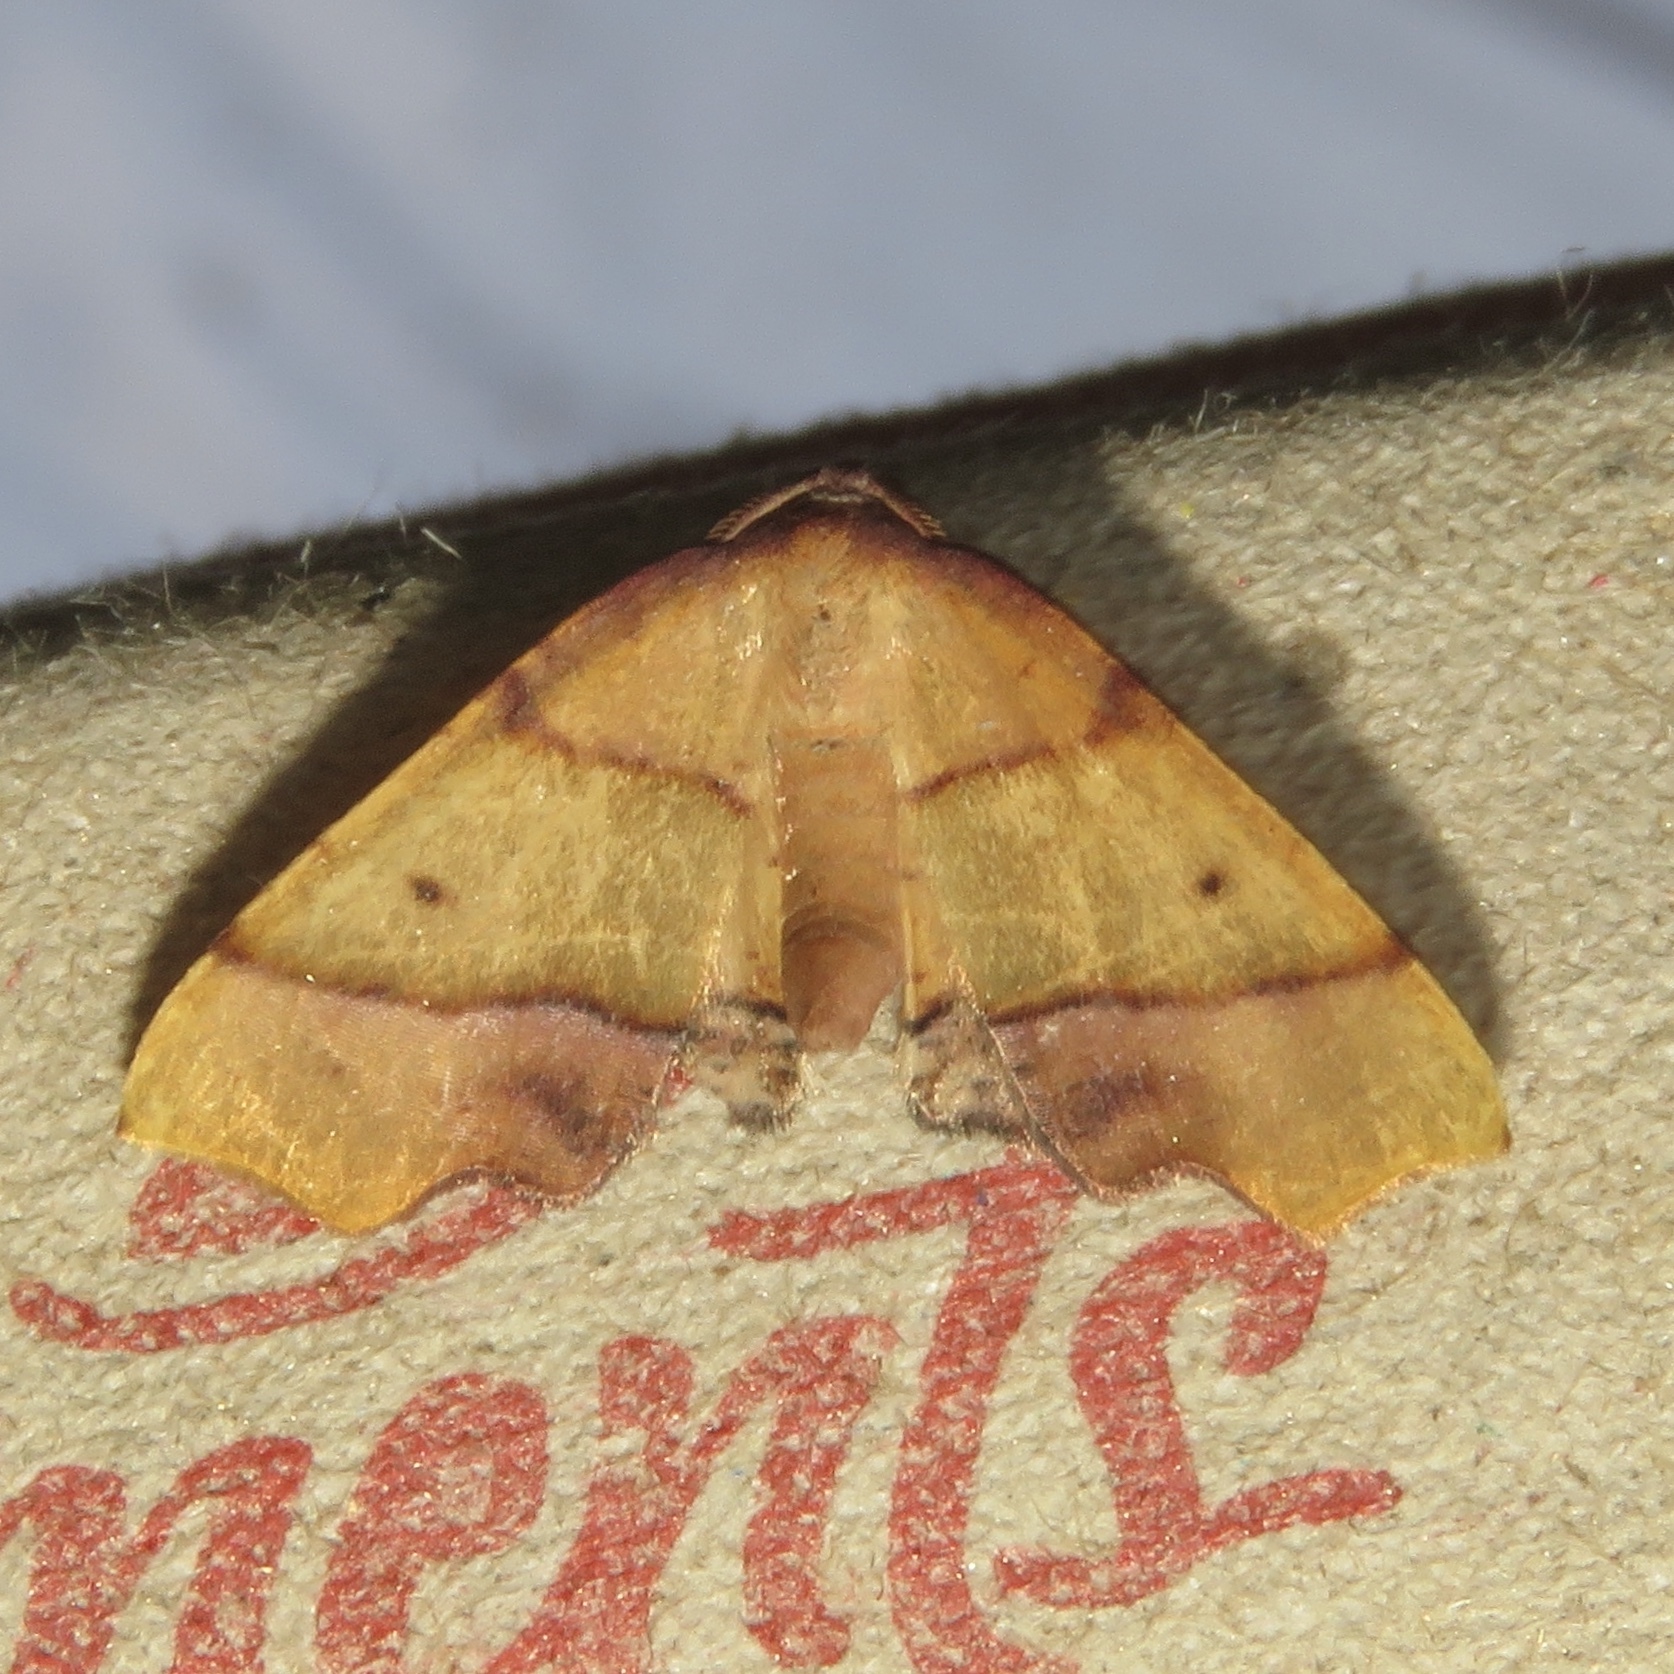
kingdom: Animalia
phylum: Arthropoda
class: Insecta
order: Lepidoptera
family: Geometridae
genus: Plagodis
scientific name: Plagodis phlogosaria
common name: Straight-lined plagodis
